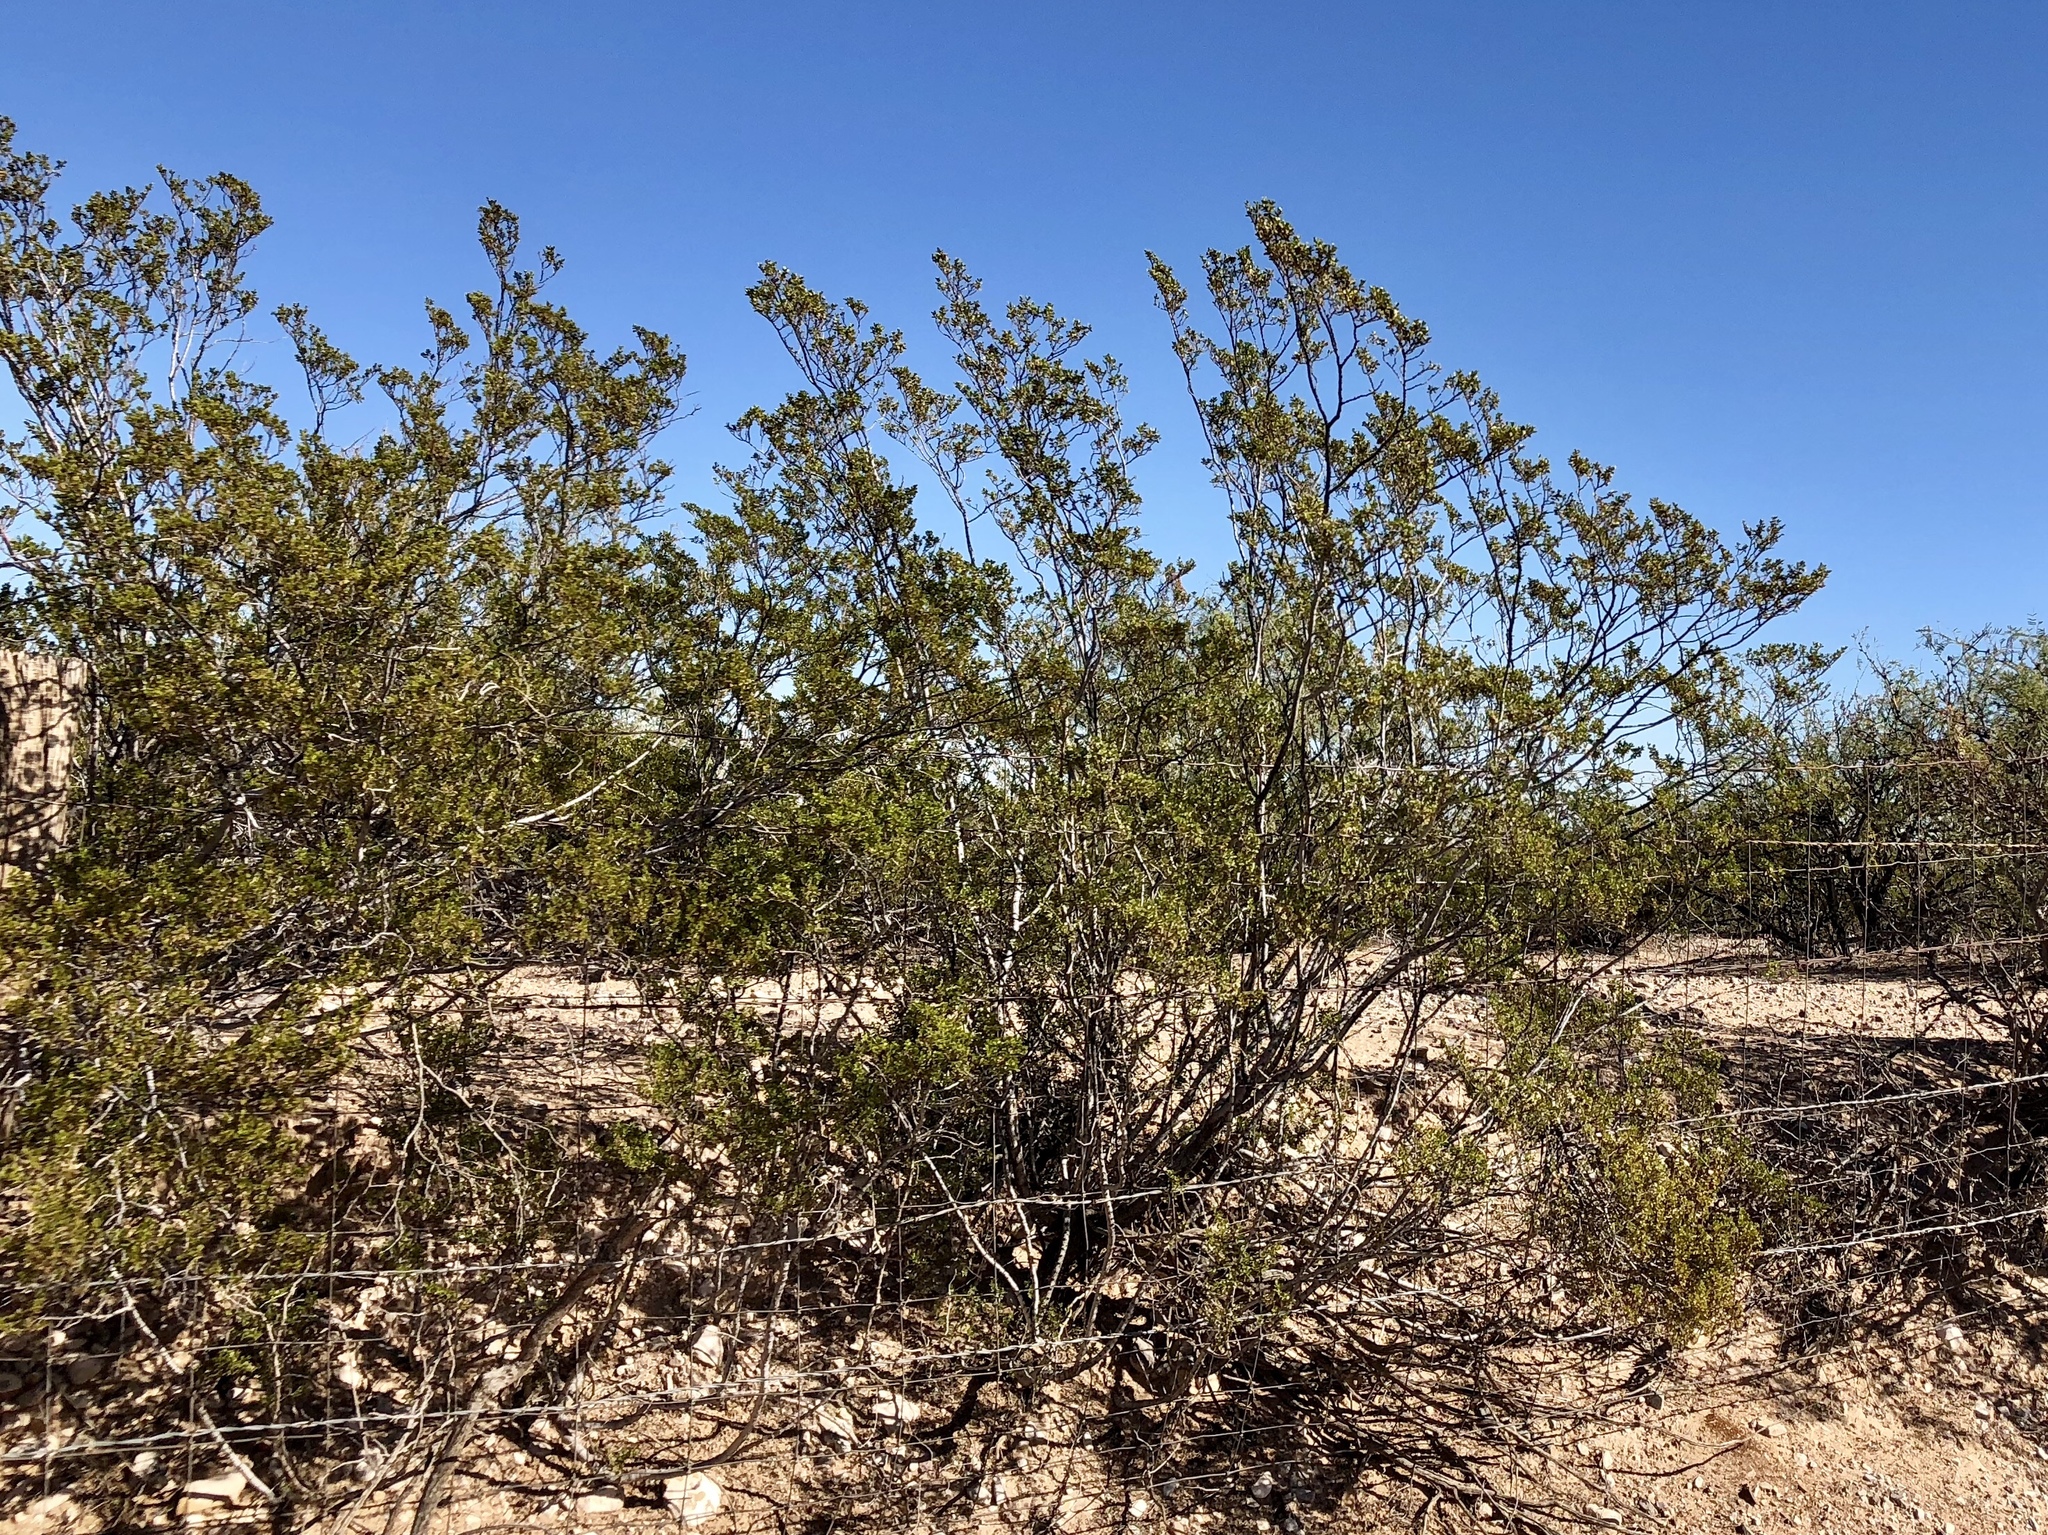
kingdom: Plantae
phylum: Tracheophyta
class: Magnoliopsida
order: Zygophyllales
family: Zygophyllaceae
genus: Larrea
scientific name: Larrea tridentata
